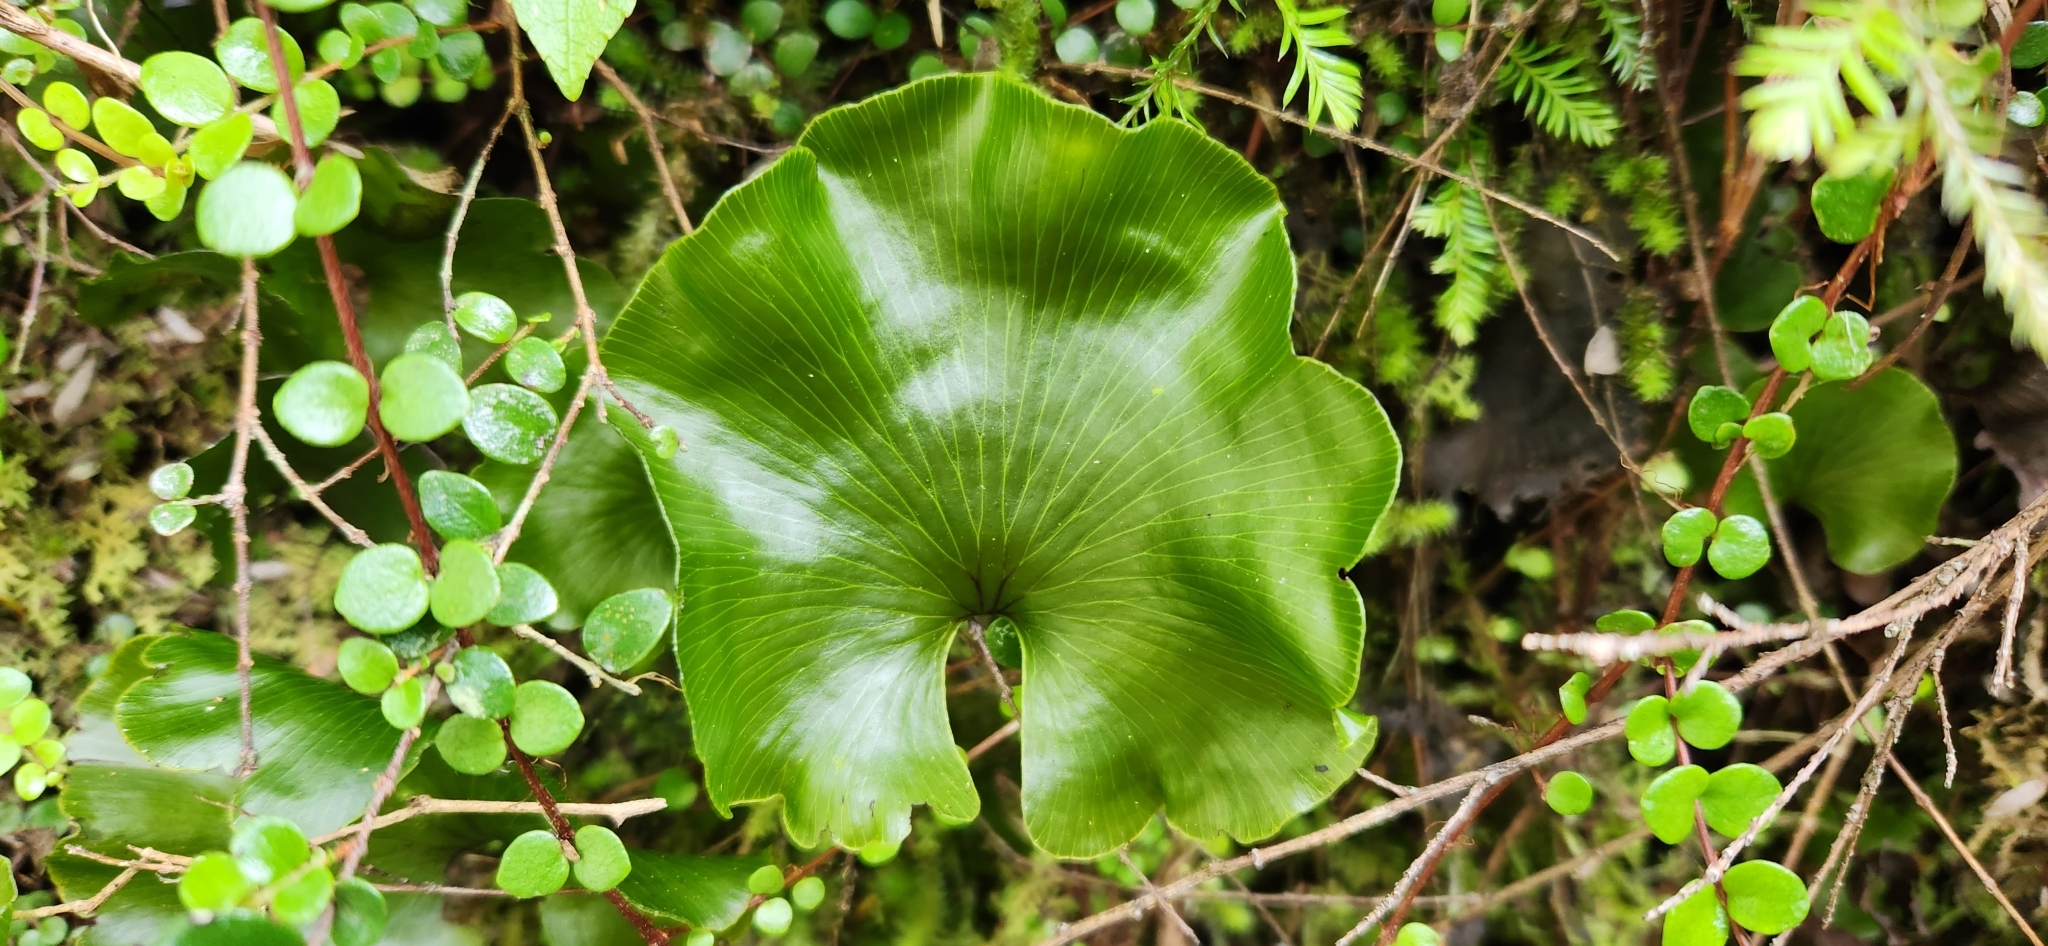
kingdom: Plantae
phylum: Tracheophyta
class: Polypodiopsida
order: Hymenophyllales
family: Hymenophyllaceae
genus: Hymenophyllum
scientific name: Hymenophyllum nephrophyllum
